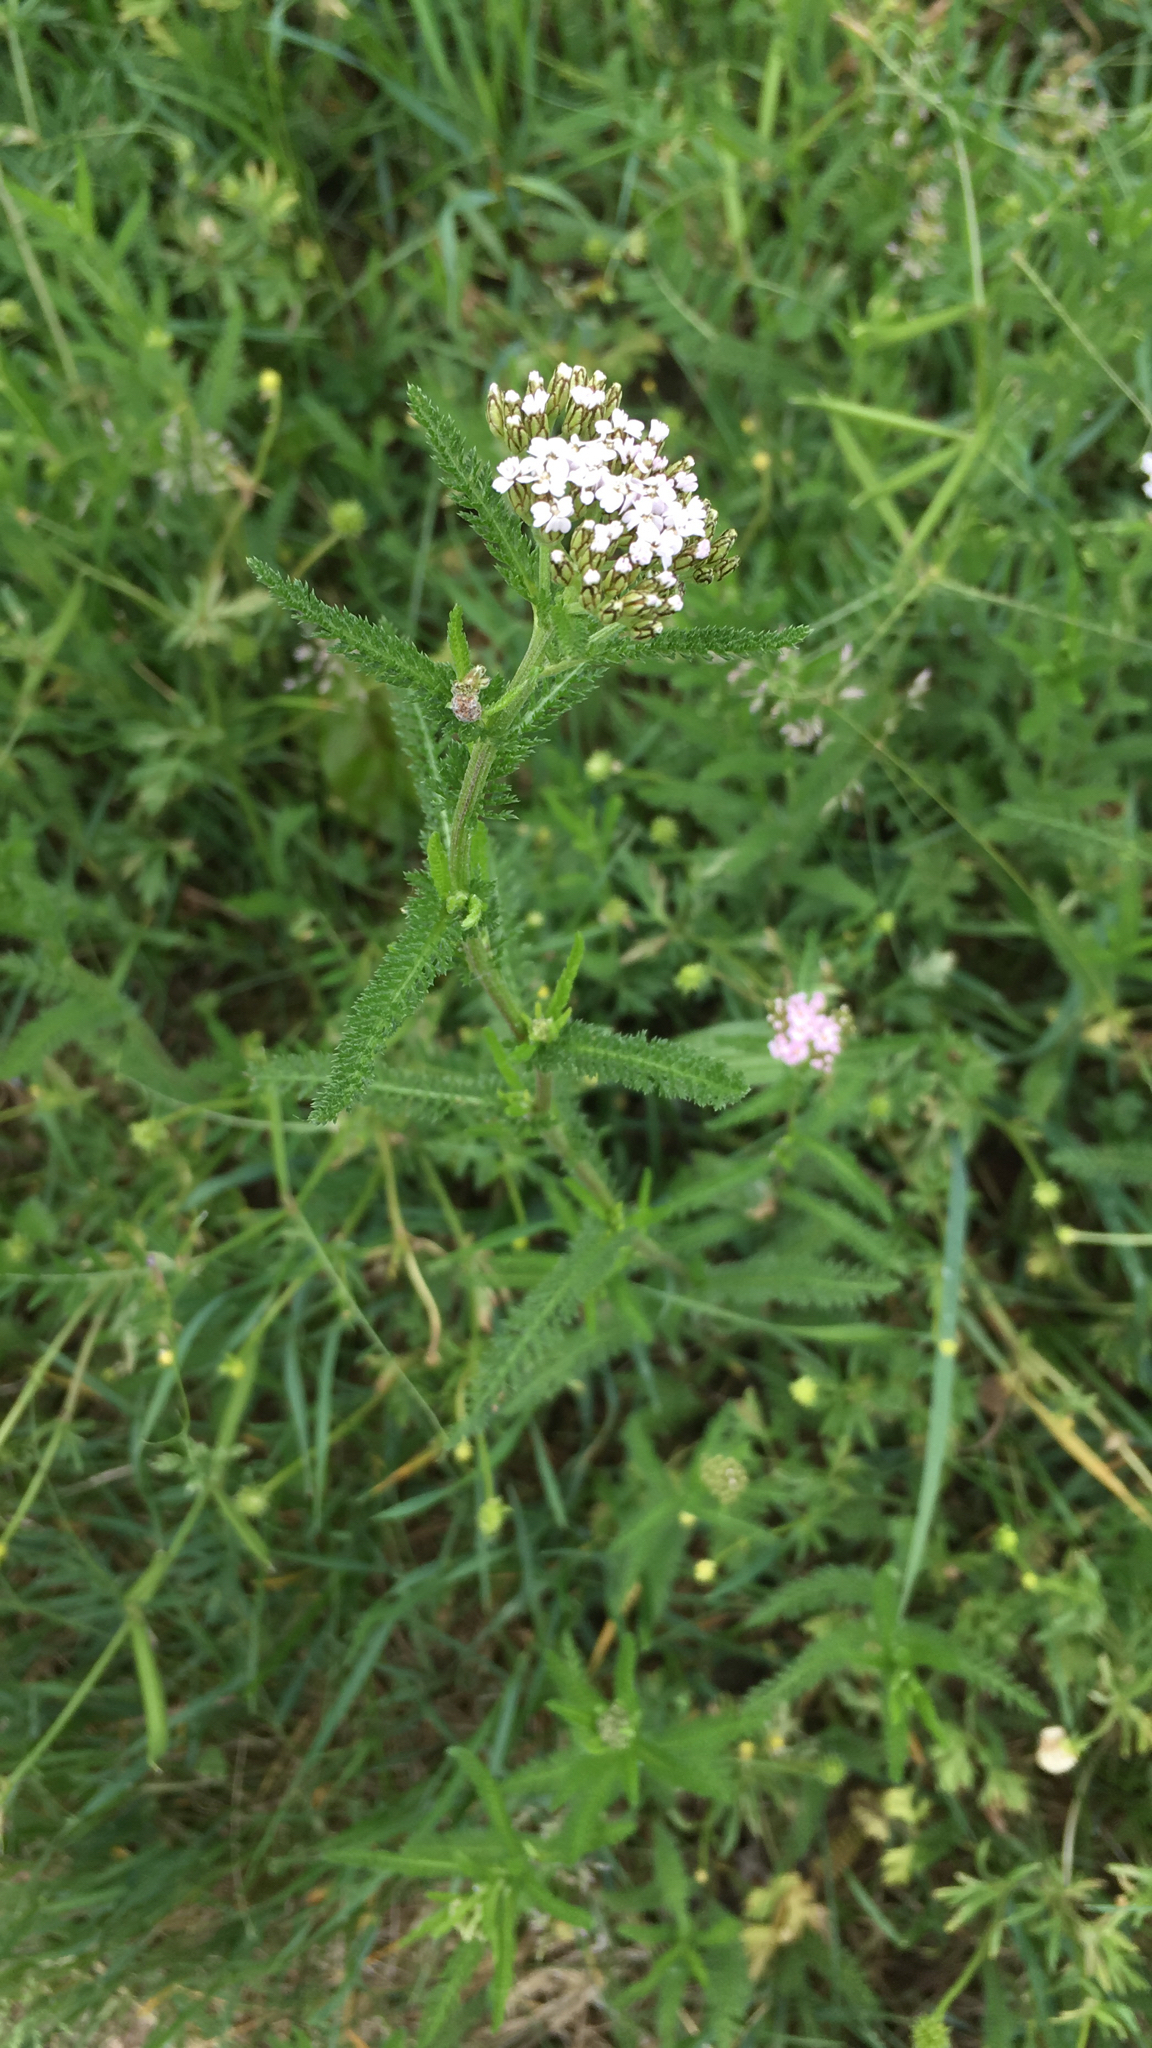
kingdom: Plantae
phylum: Tracheophyta
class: Magnoliopsida
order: Asterales
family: Asteraceae
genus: Achillea
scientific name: Achillea millefolium
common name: Yarrow
